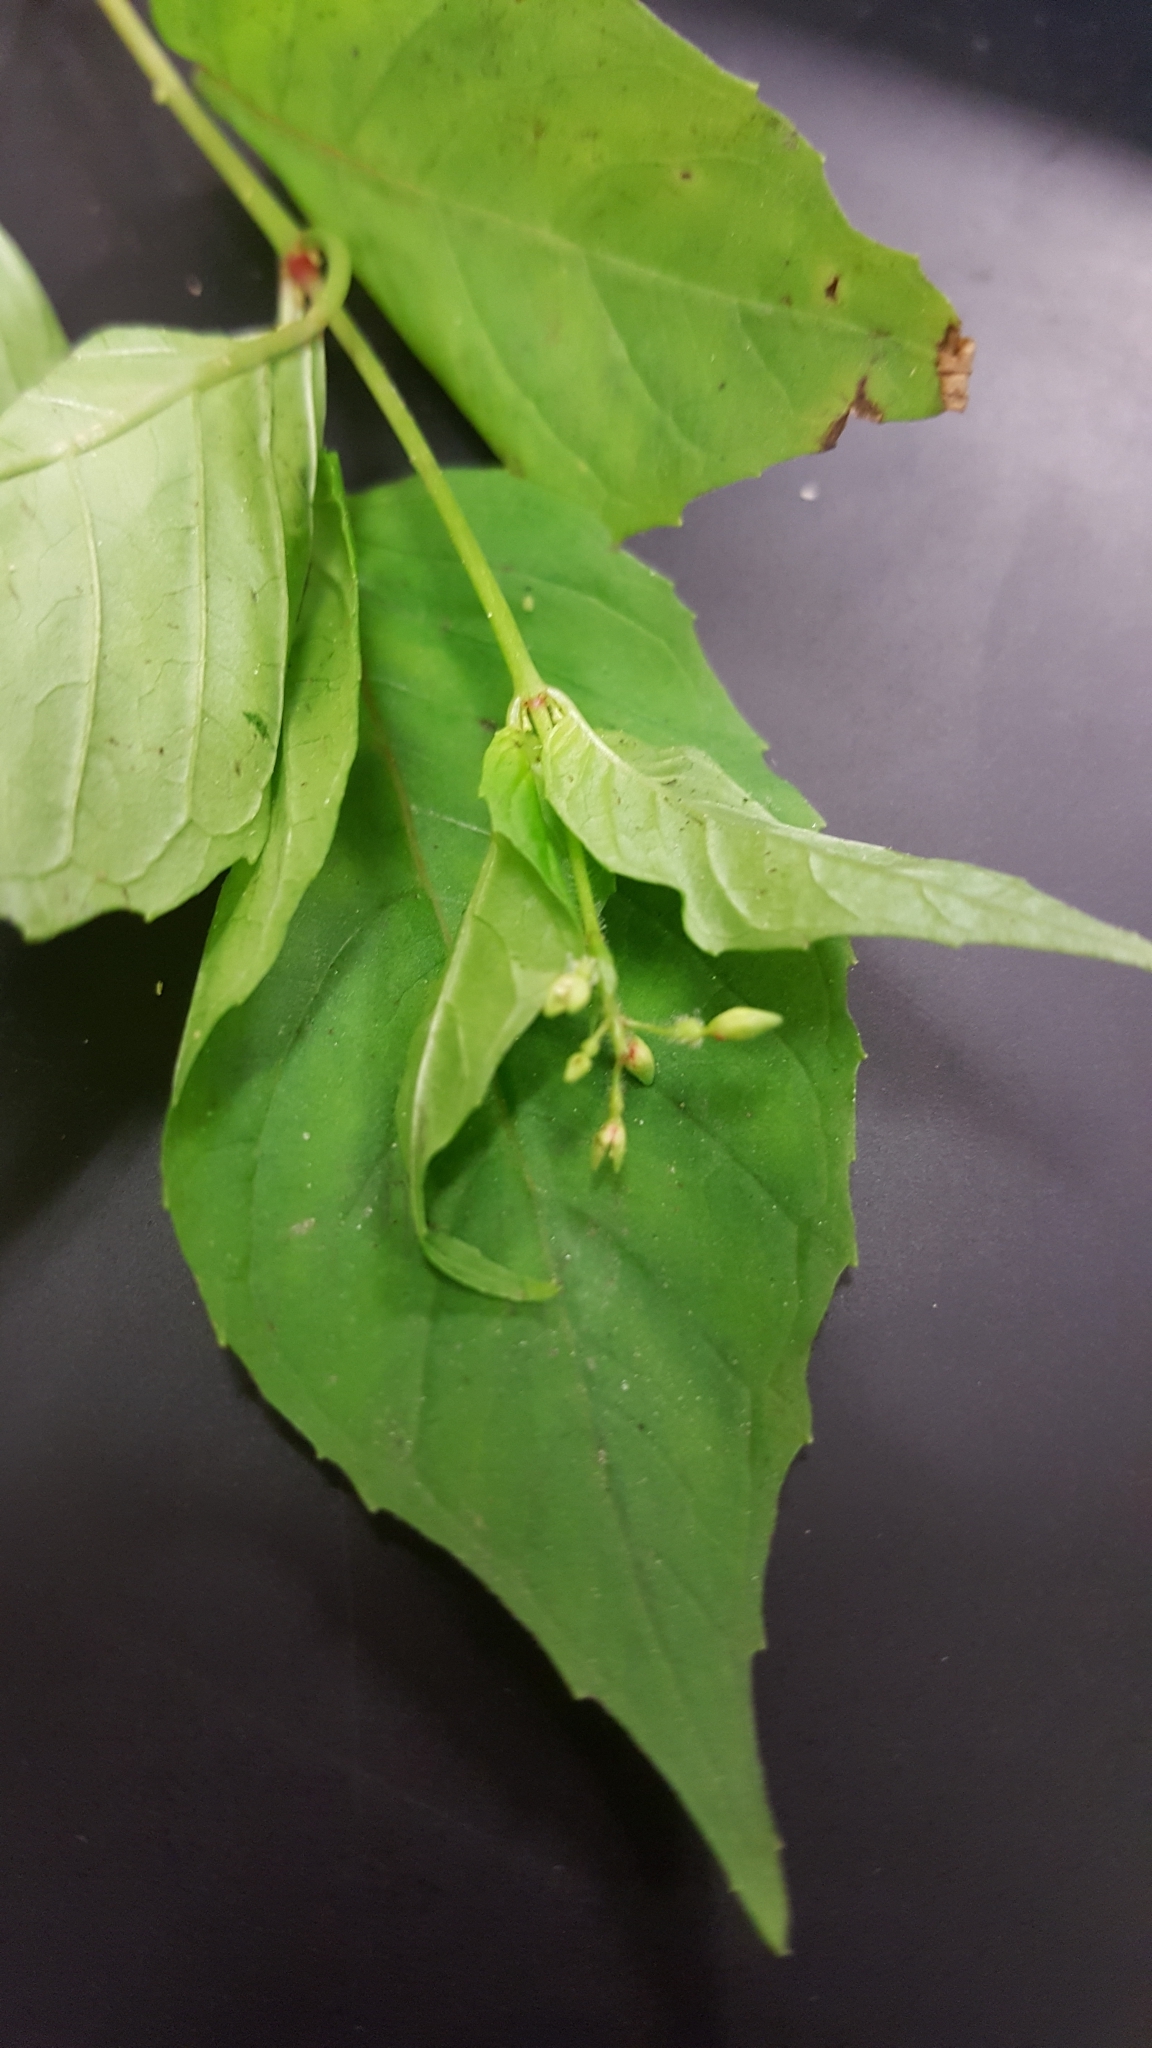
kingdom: Plantae
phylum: Tracheophyta
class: Magnoliopsida
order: Myrtales
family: Onagraceae
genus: Circaea
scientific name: Circaea canadensis
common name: Broad-leaved enchanter's nightshade
